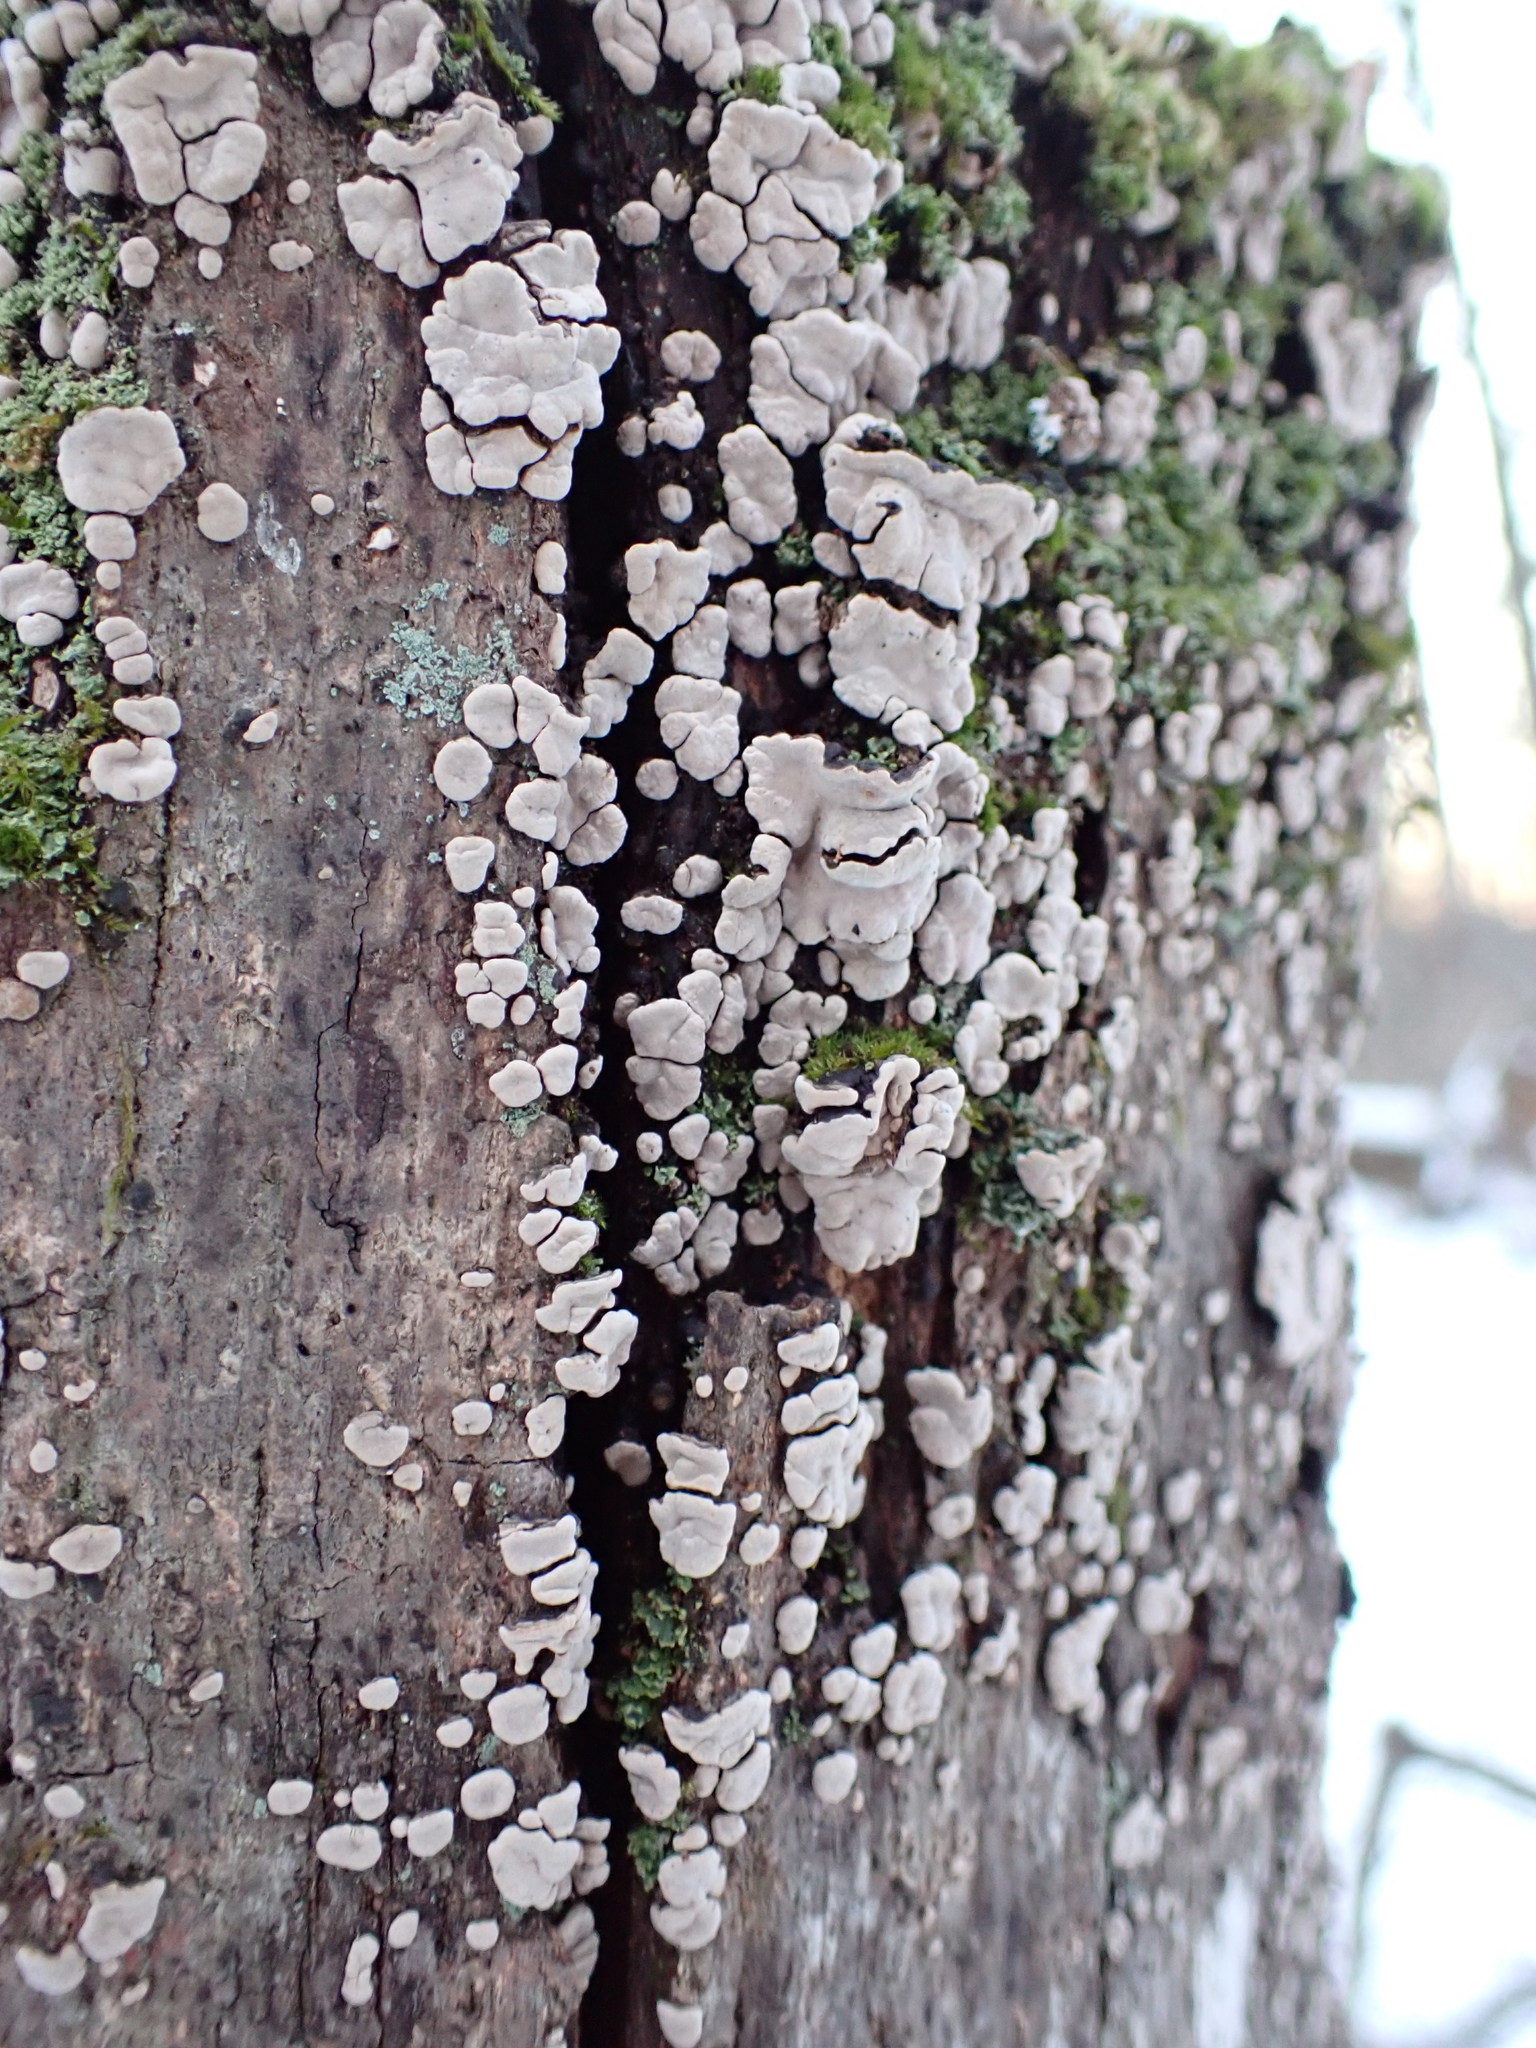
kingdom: Fungi
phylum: Basidiomycota
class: Agaricomycetes
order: Russulales
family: Stereaceae
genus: Xylobolus
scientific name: Xylobolus frustulatus
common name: Ceramic parchment
